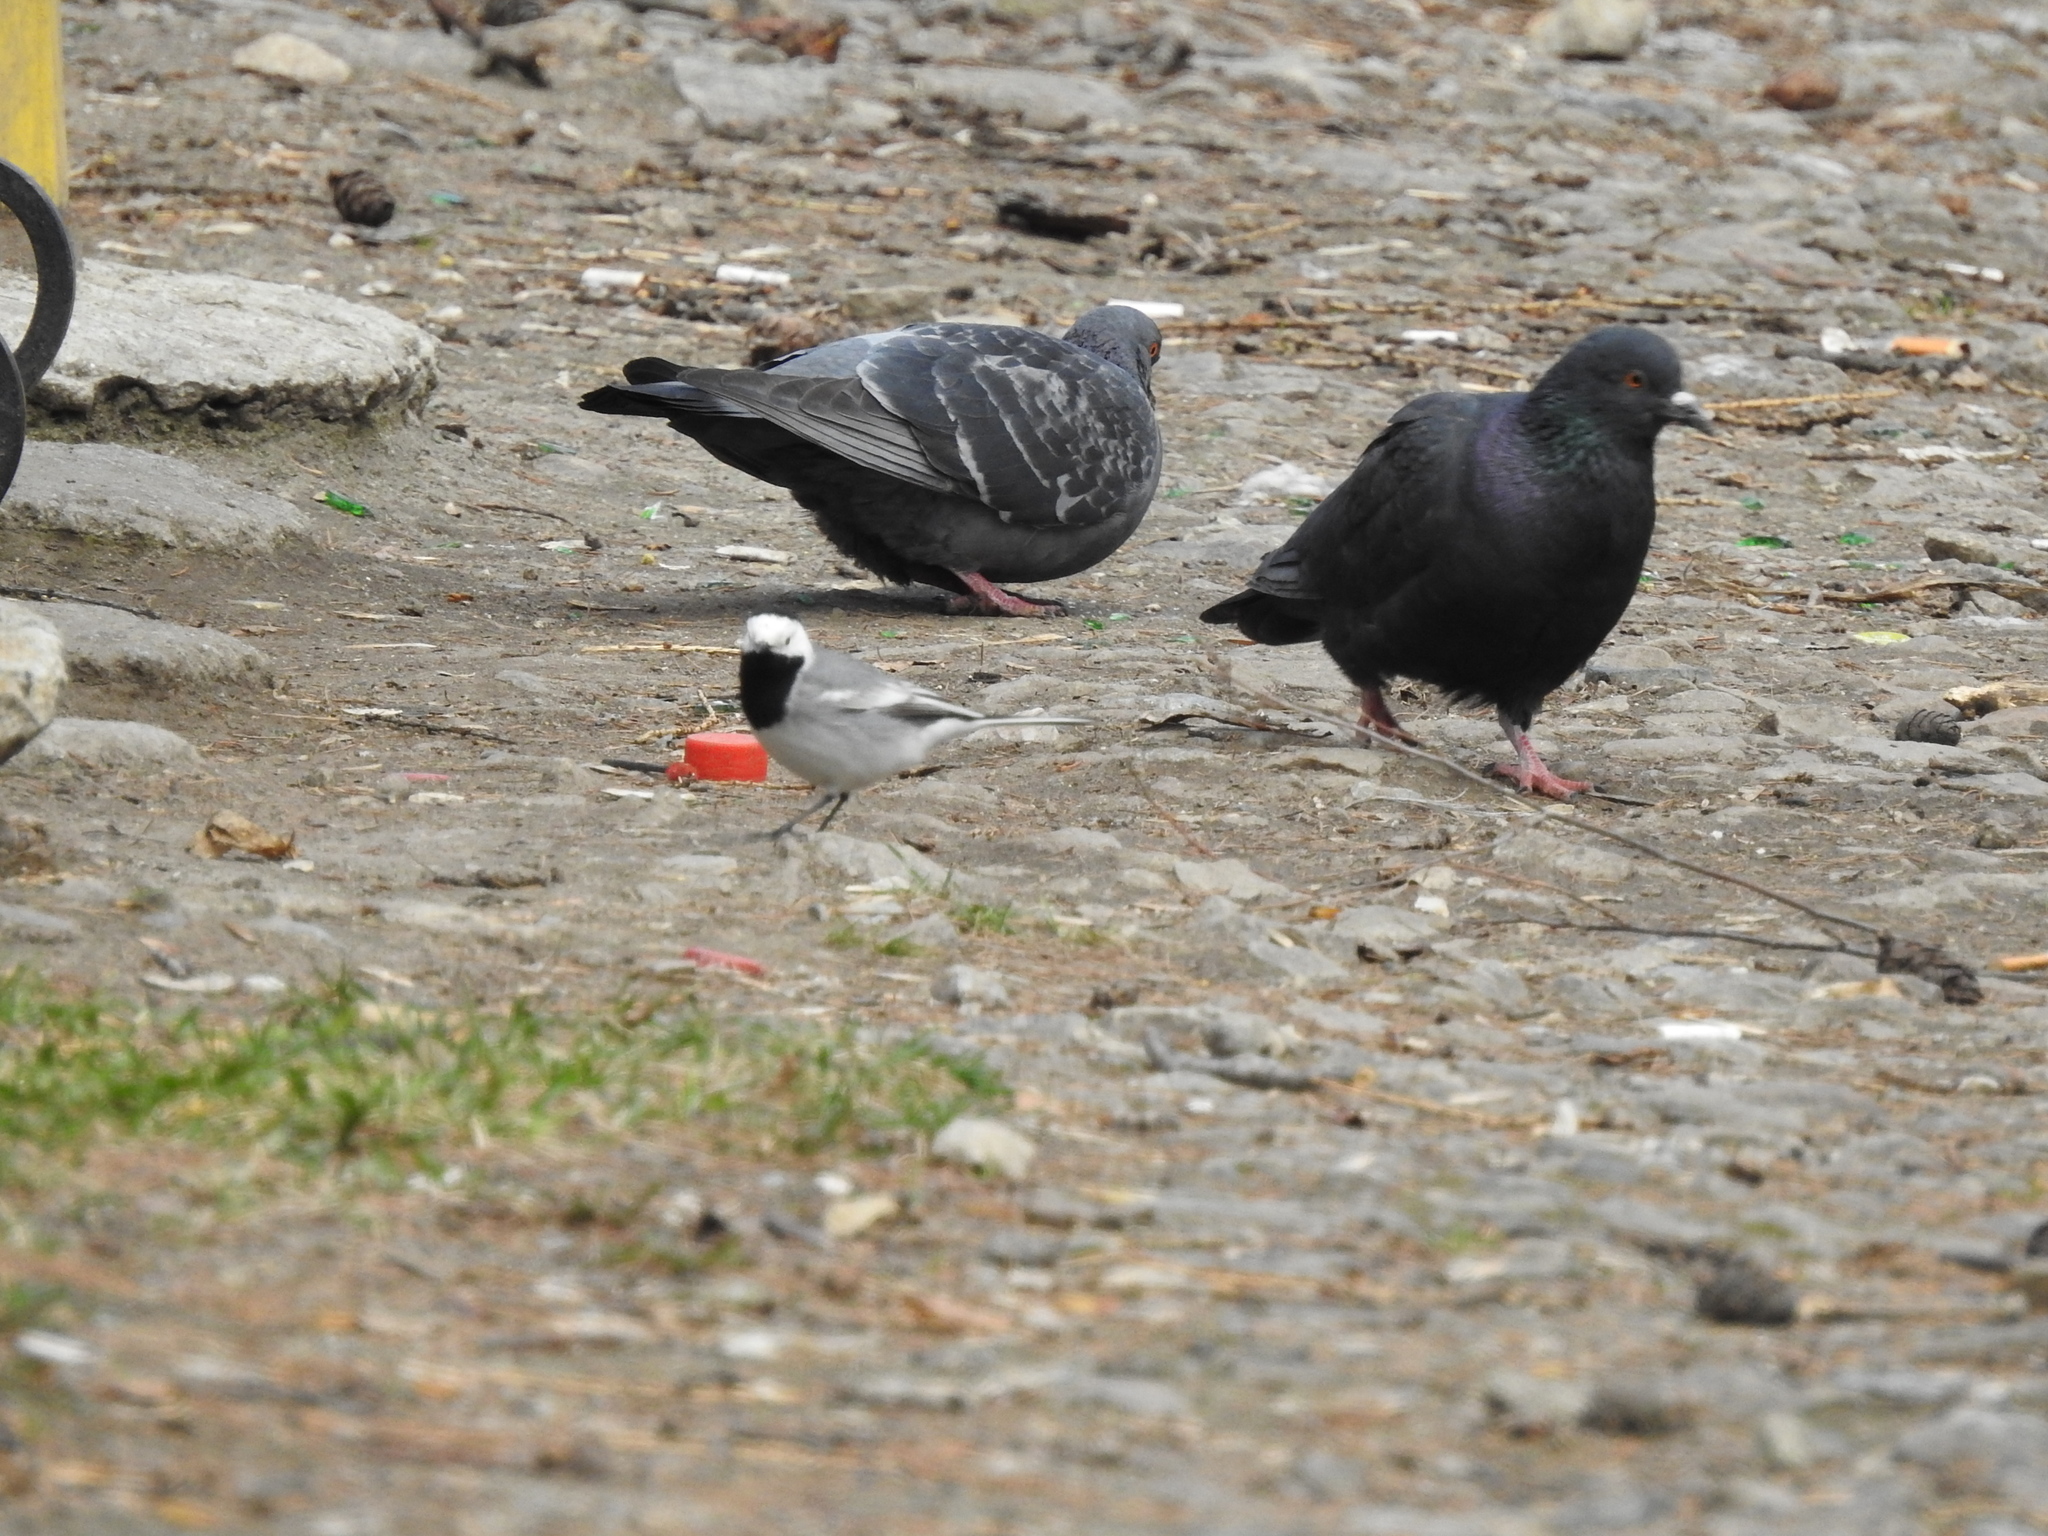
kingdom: Animalia
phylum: Chordata
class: Aves
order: Passeriformes
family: Motacillidae
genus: Motacilla
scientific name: Motacilla alba
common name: White wagtail
